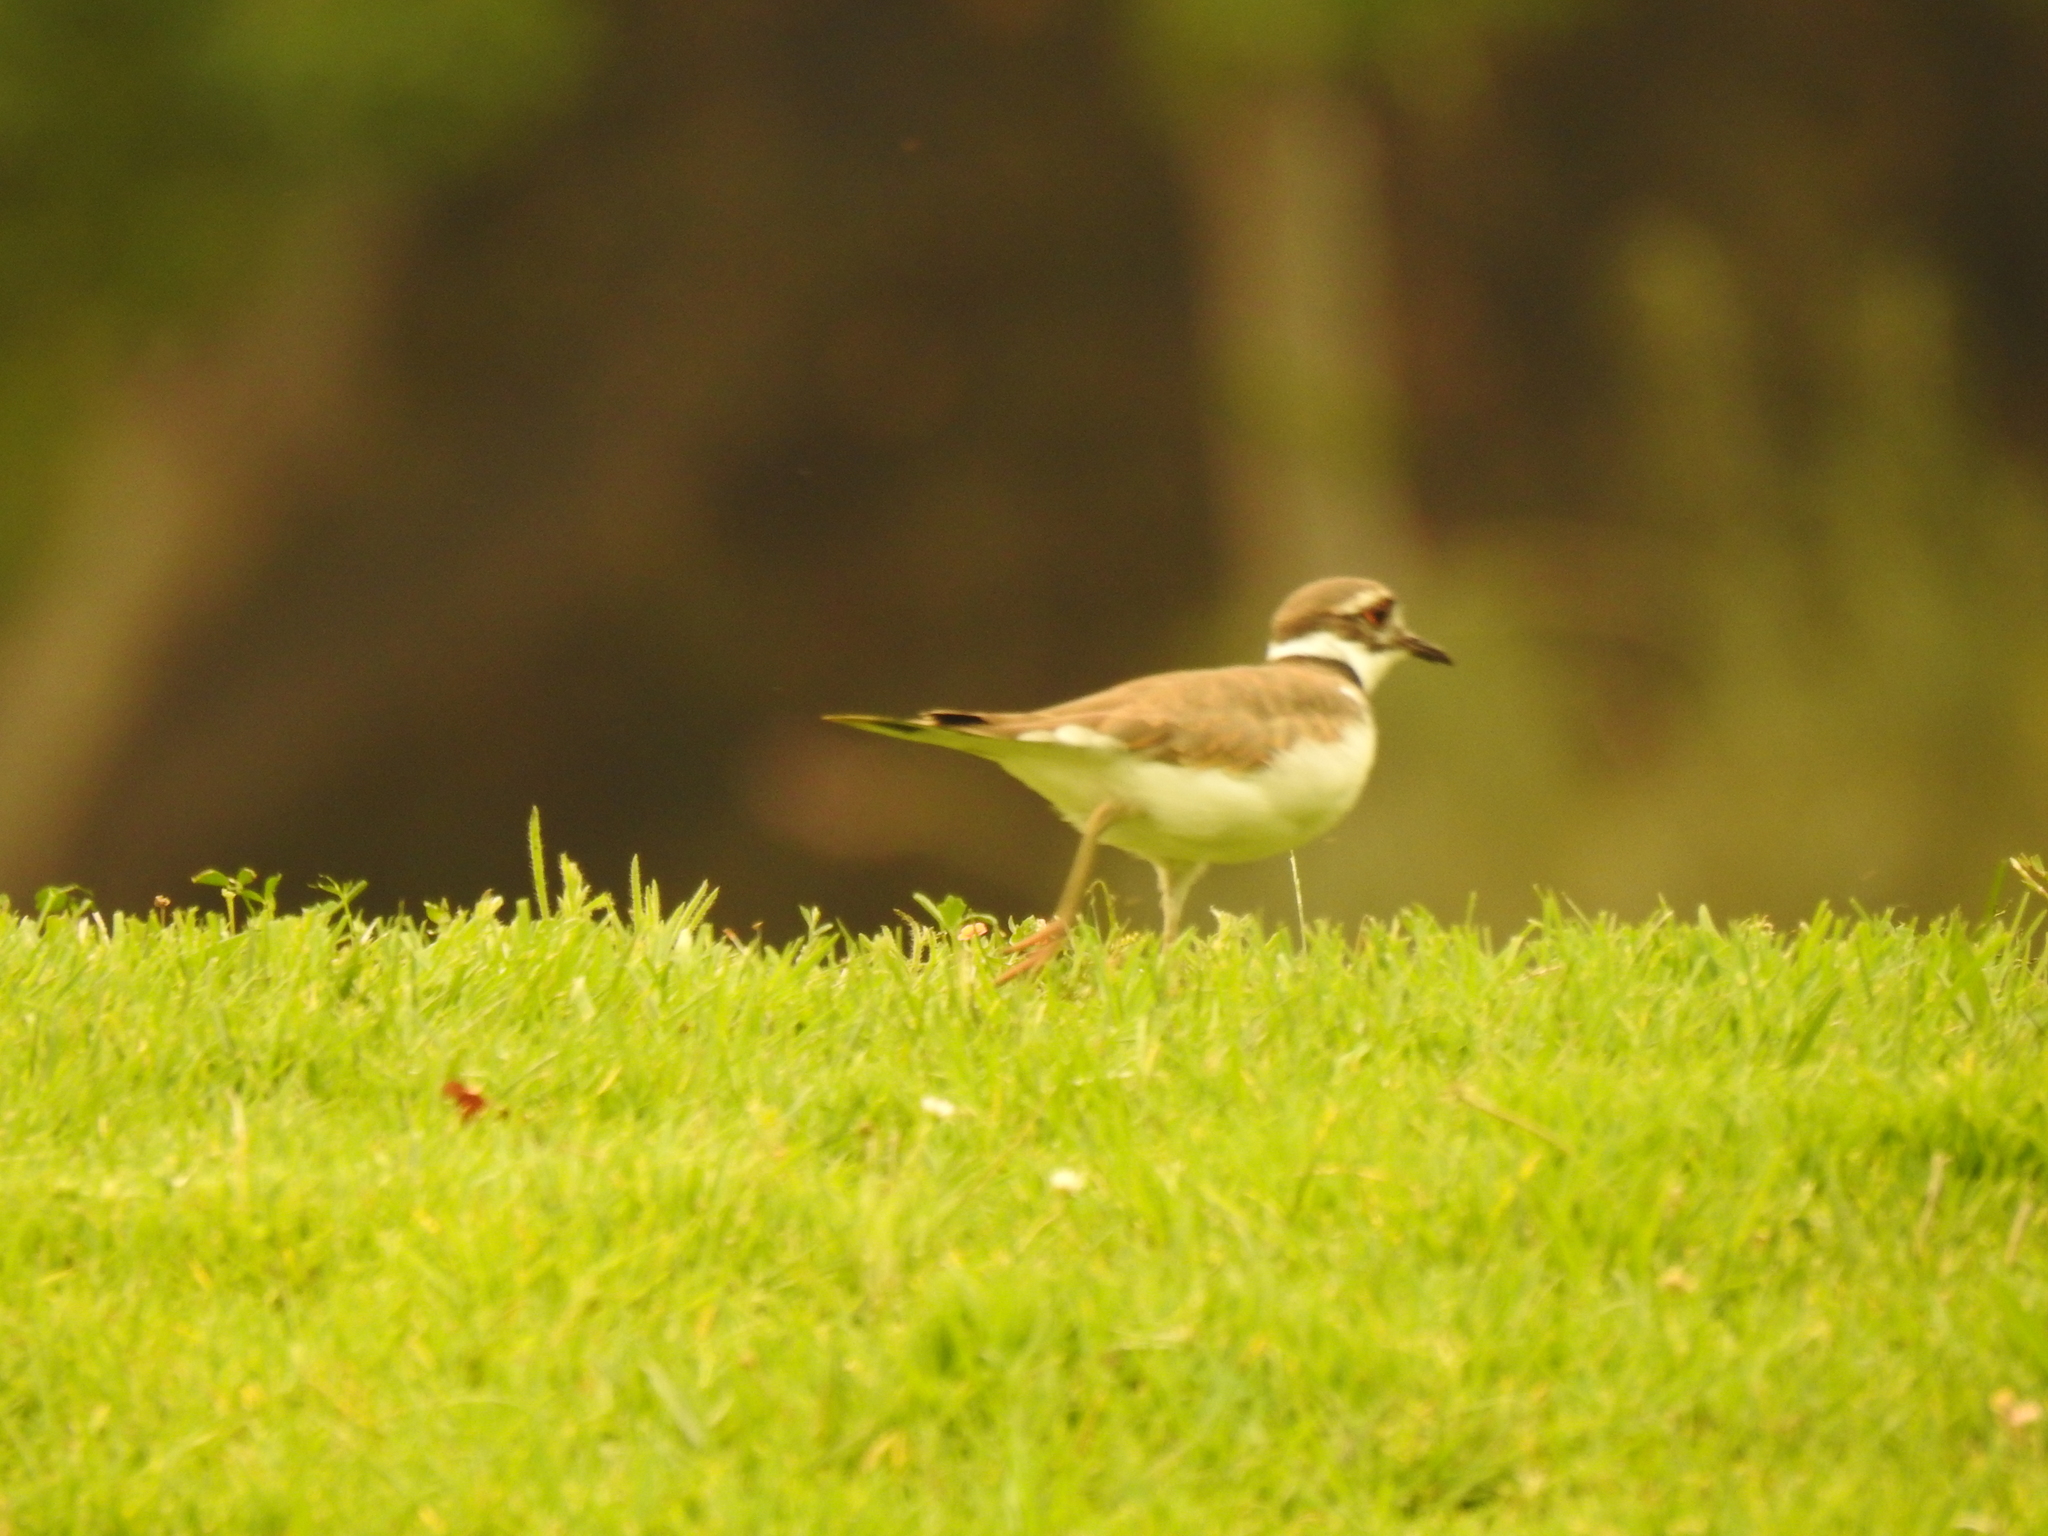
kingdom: Animalia
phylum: Chordata
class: Aves
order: Charadriiformes
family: Charadriidae
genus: Charadrius
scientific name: Charadrius vociferus
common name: Killdeer
